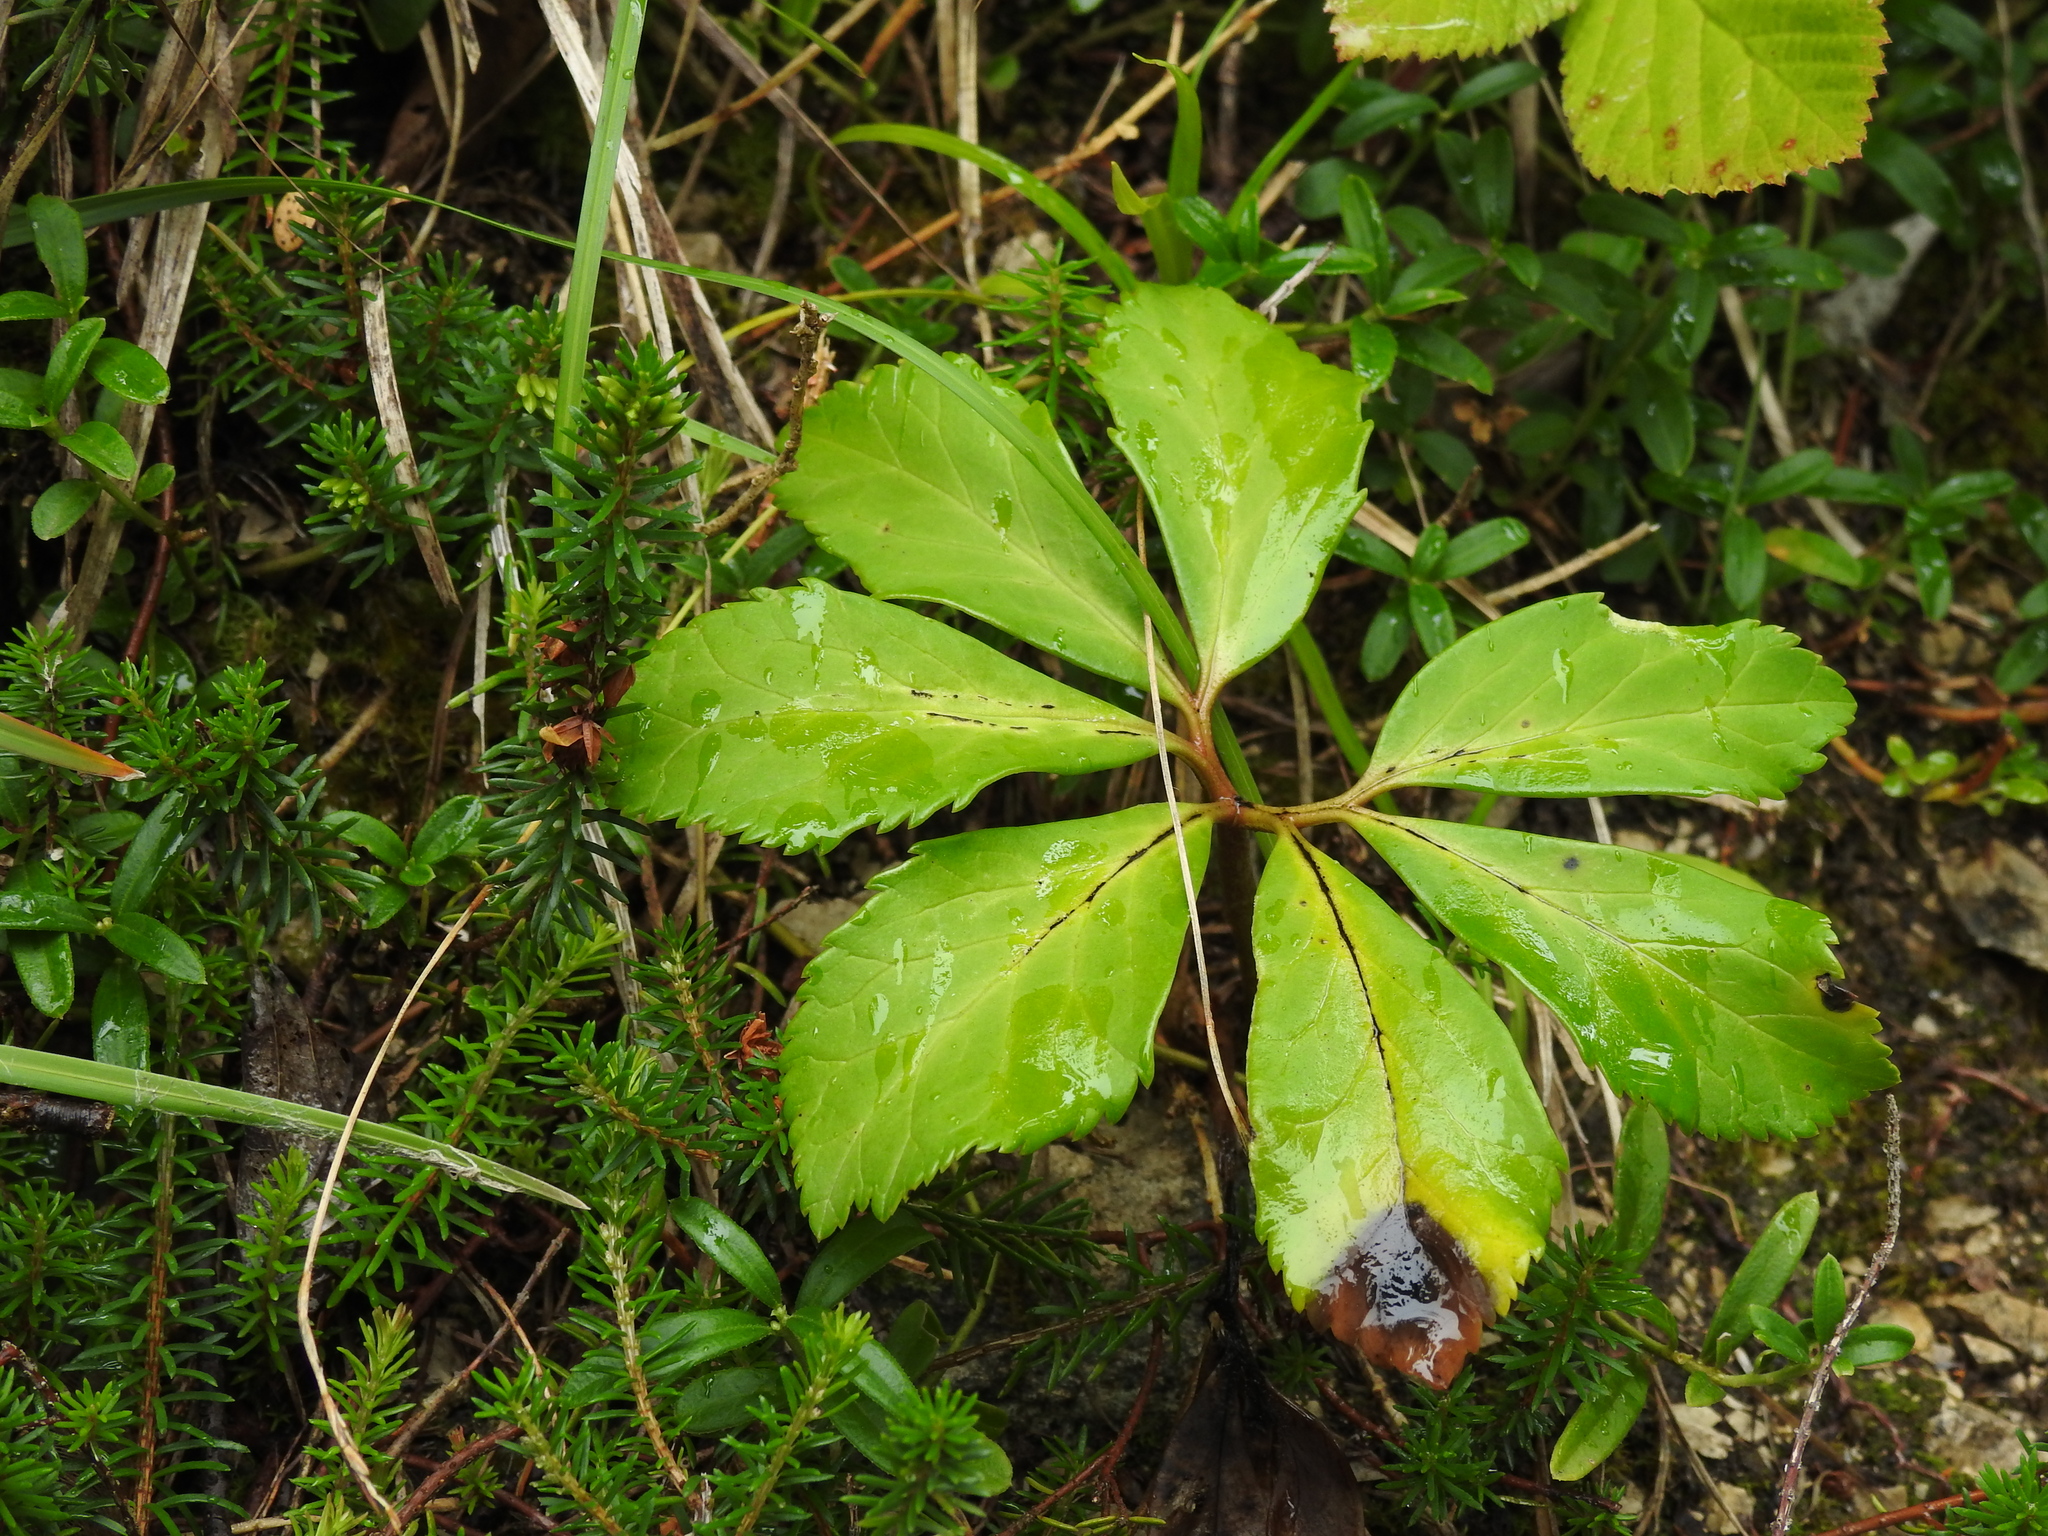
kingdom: Plantae
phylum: Tracheophyta
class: Magnoliopsida
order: Ranunculales
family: Ranunculaceae
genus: Helleborus
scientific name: Helleborus niger
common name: Black hellebore
